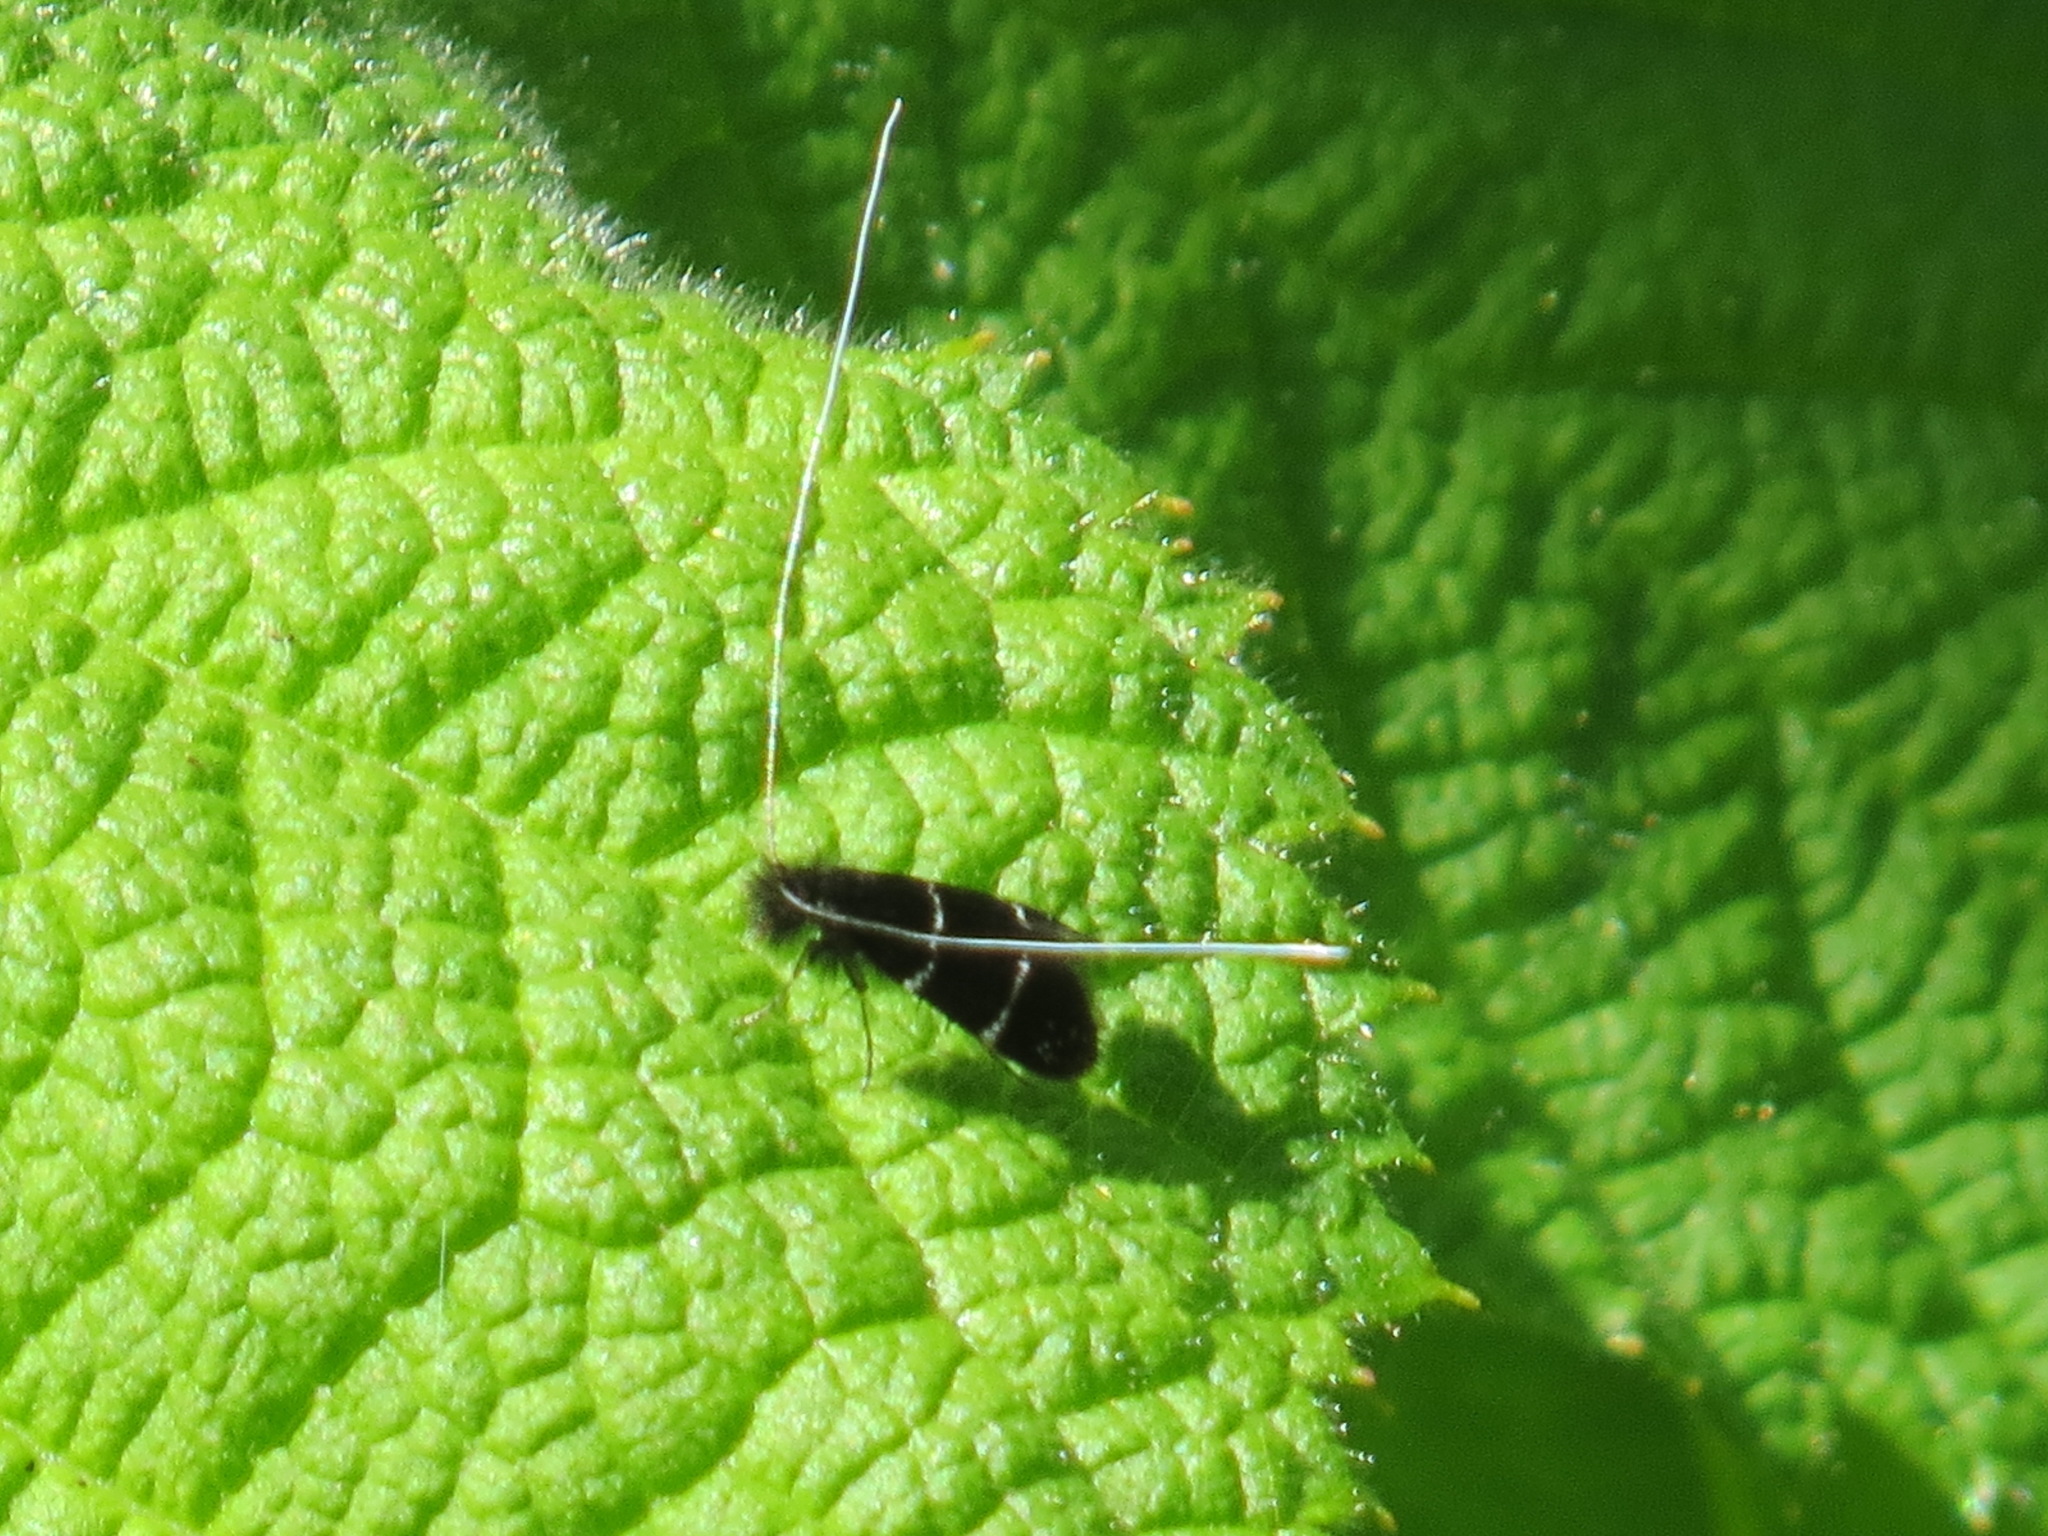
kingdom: Animalia
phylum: Arthropoda
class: Insecta
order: Lepidoptera
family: Adelidae
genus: Adela
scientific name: Adela septentrionella
